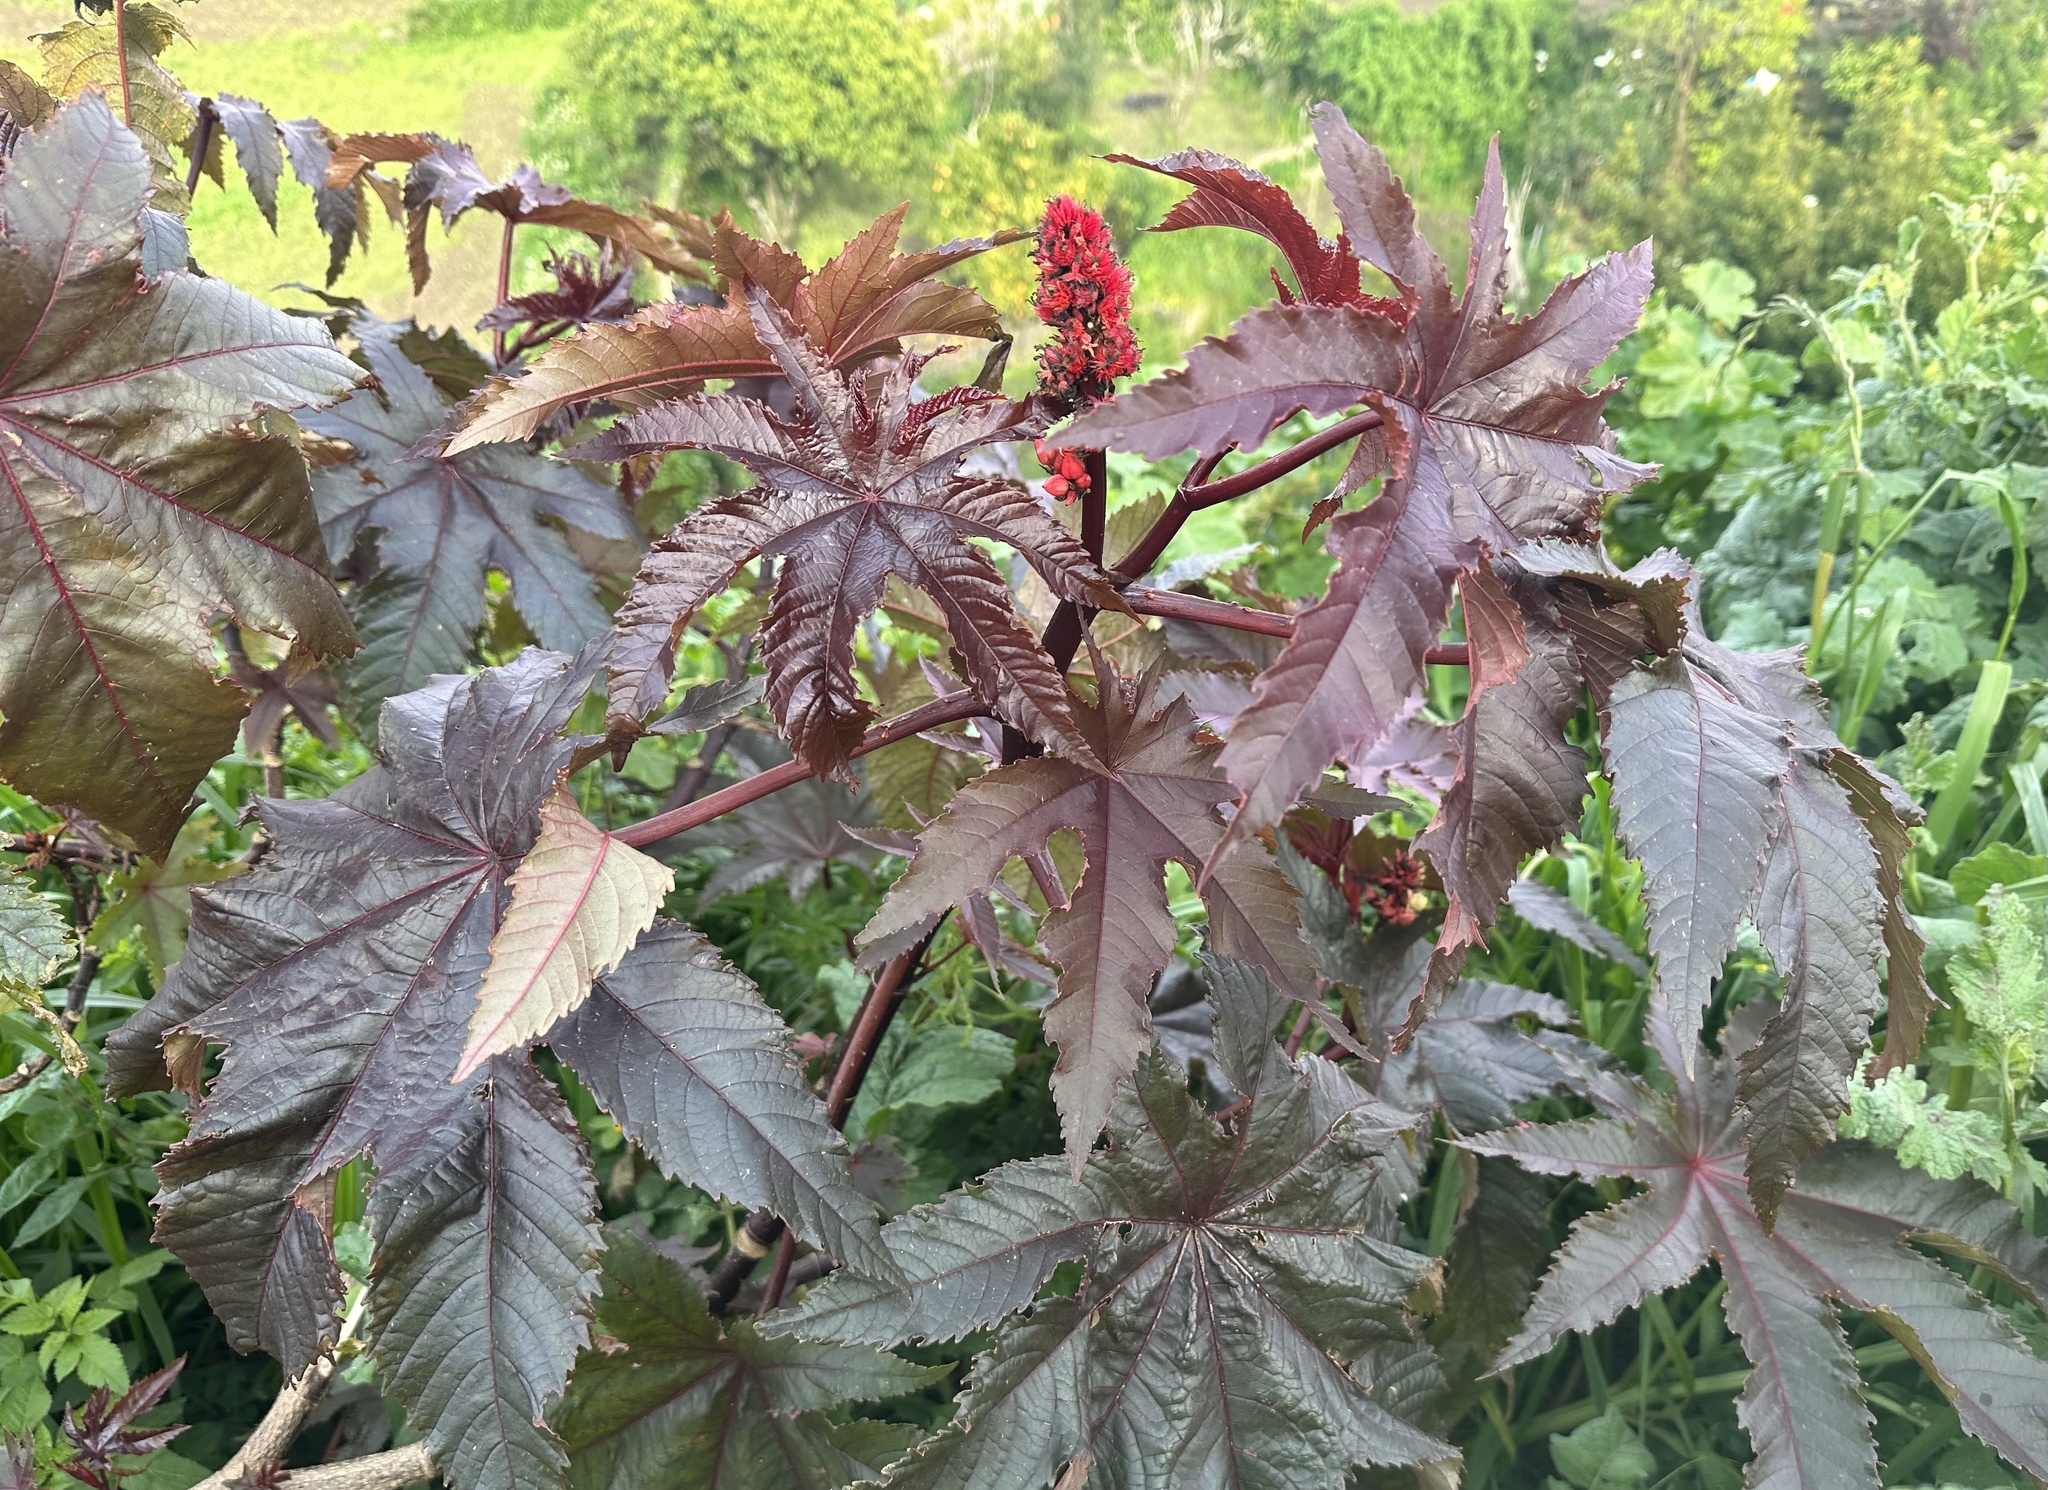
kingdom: Plantae
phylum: Tracheophyta
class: Magnoliopsida
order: Malpighiales
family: Euphorbiaceae
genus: Ricinus
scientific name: Ricinus communis
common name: Castor-oil-plant
